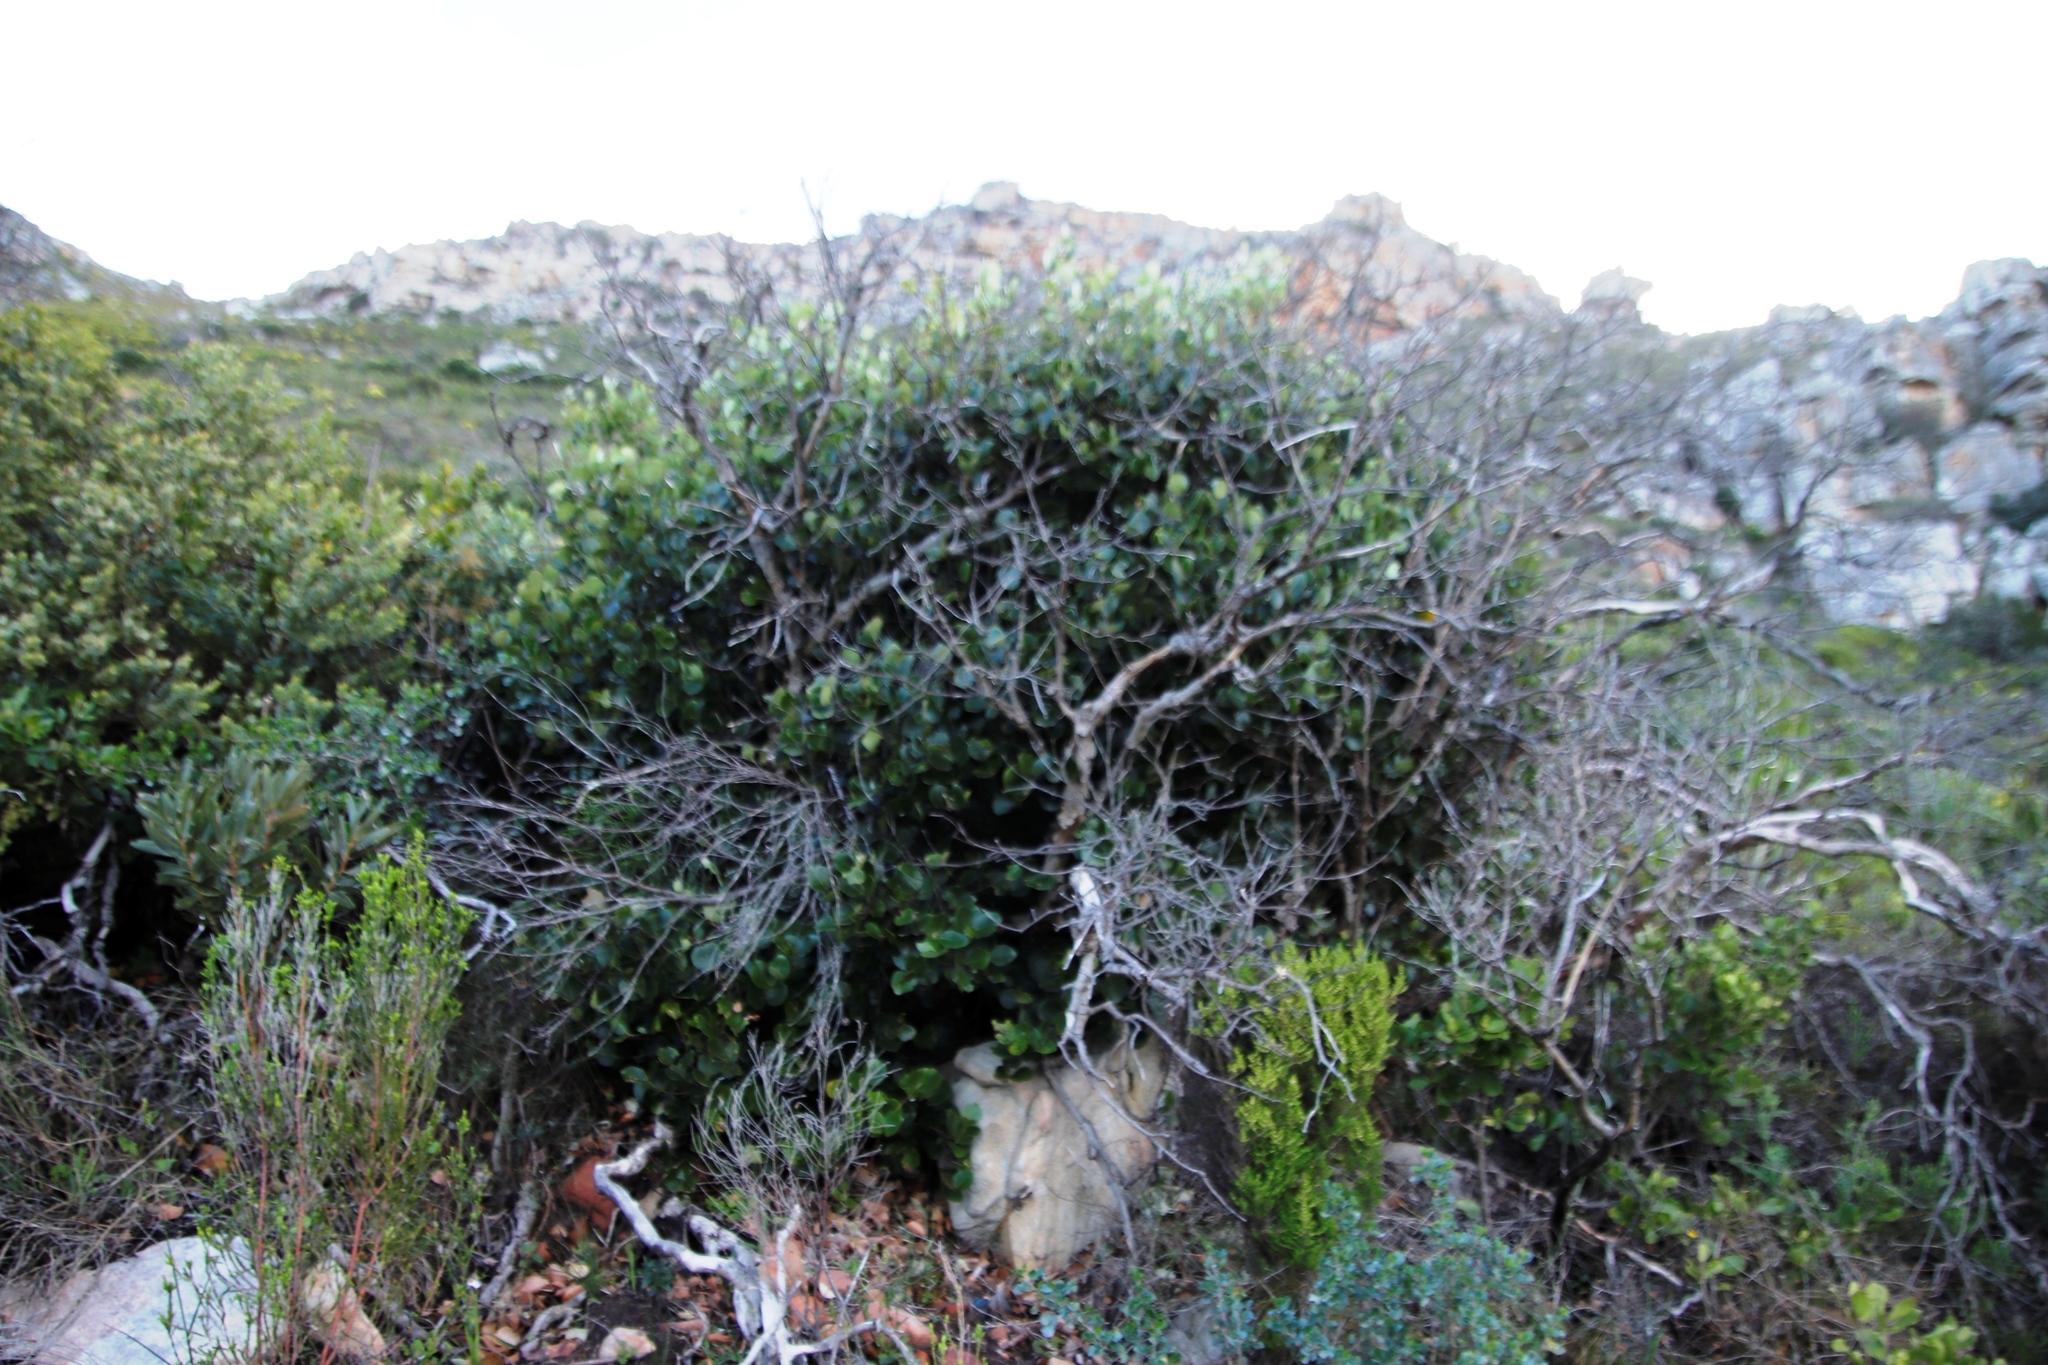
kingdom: Plantae
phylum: Tracheophyta
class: Magnoliopsida
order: Celastrales
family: Celastraceae
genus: Cassine
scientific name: Cassine peragua
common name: Cape saffron
